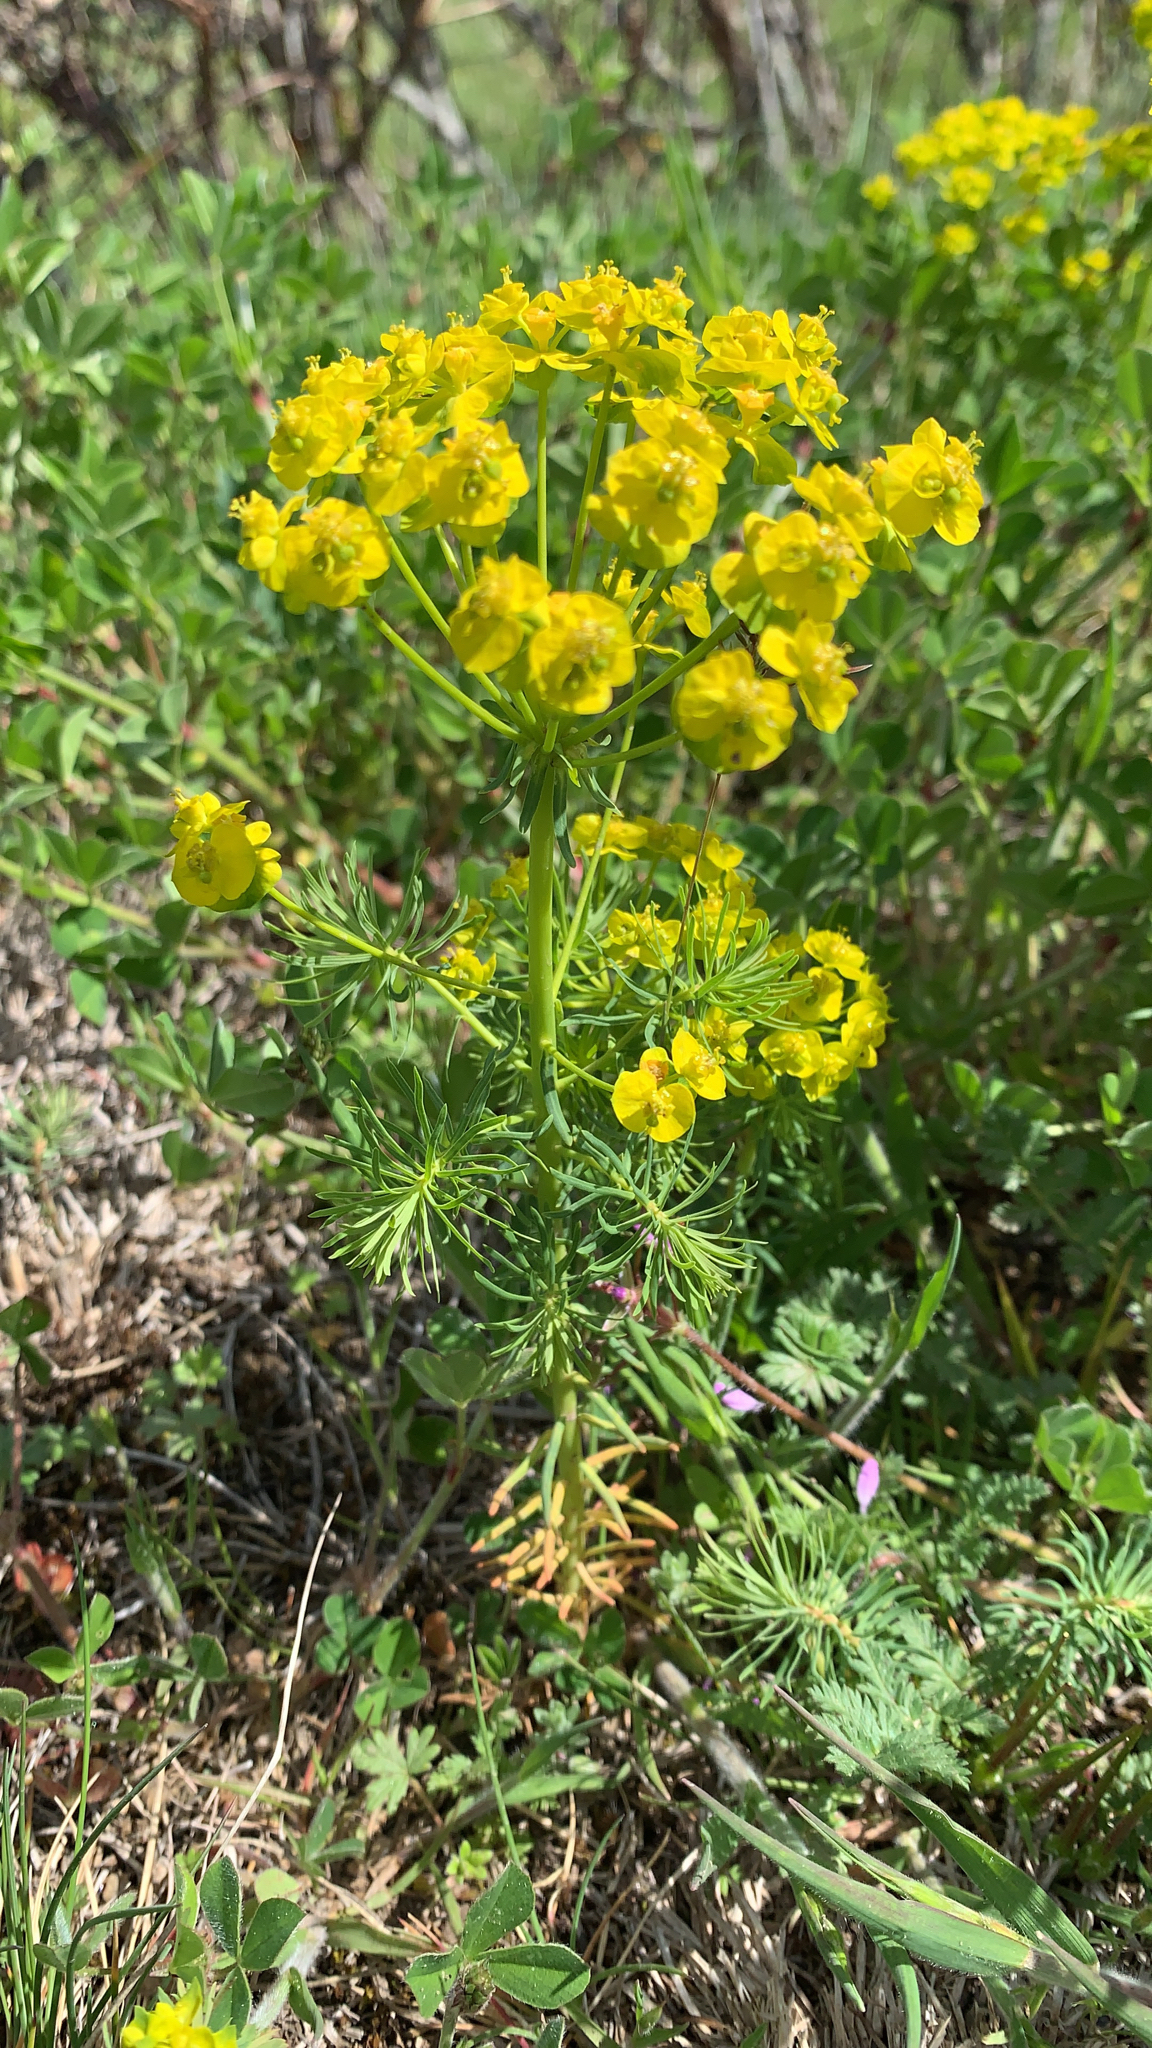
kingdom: Plantae
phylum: Tracheophyta
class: Magnoliopsida
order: Malpighiales
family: Euphorbiaceae
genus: Euphorbia
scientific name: Euphorbia cyparissias
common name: Cypress spurge
